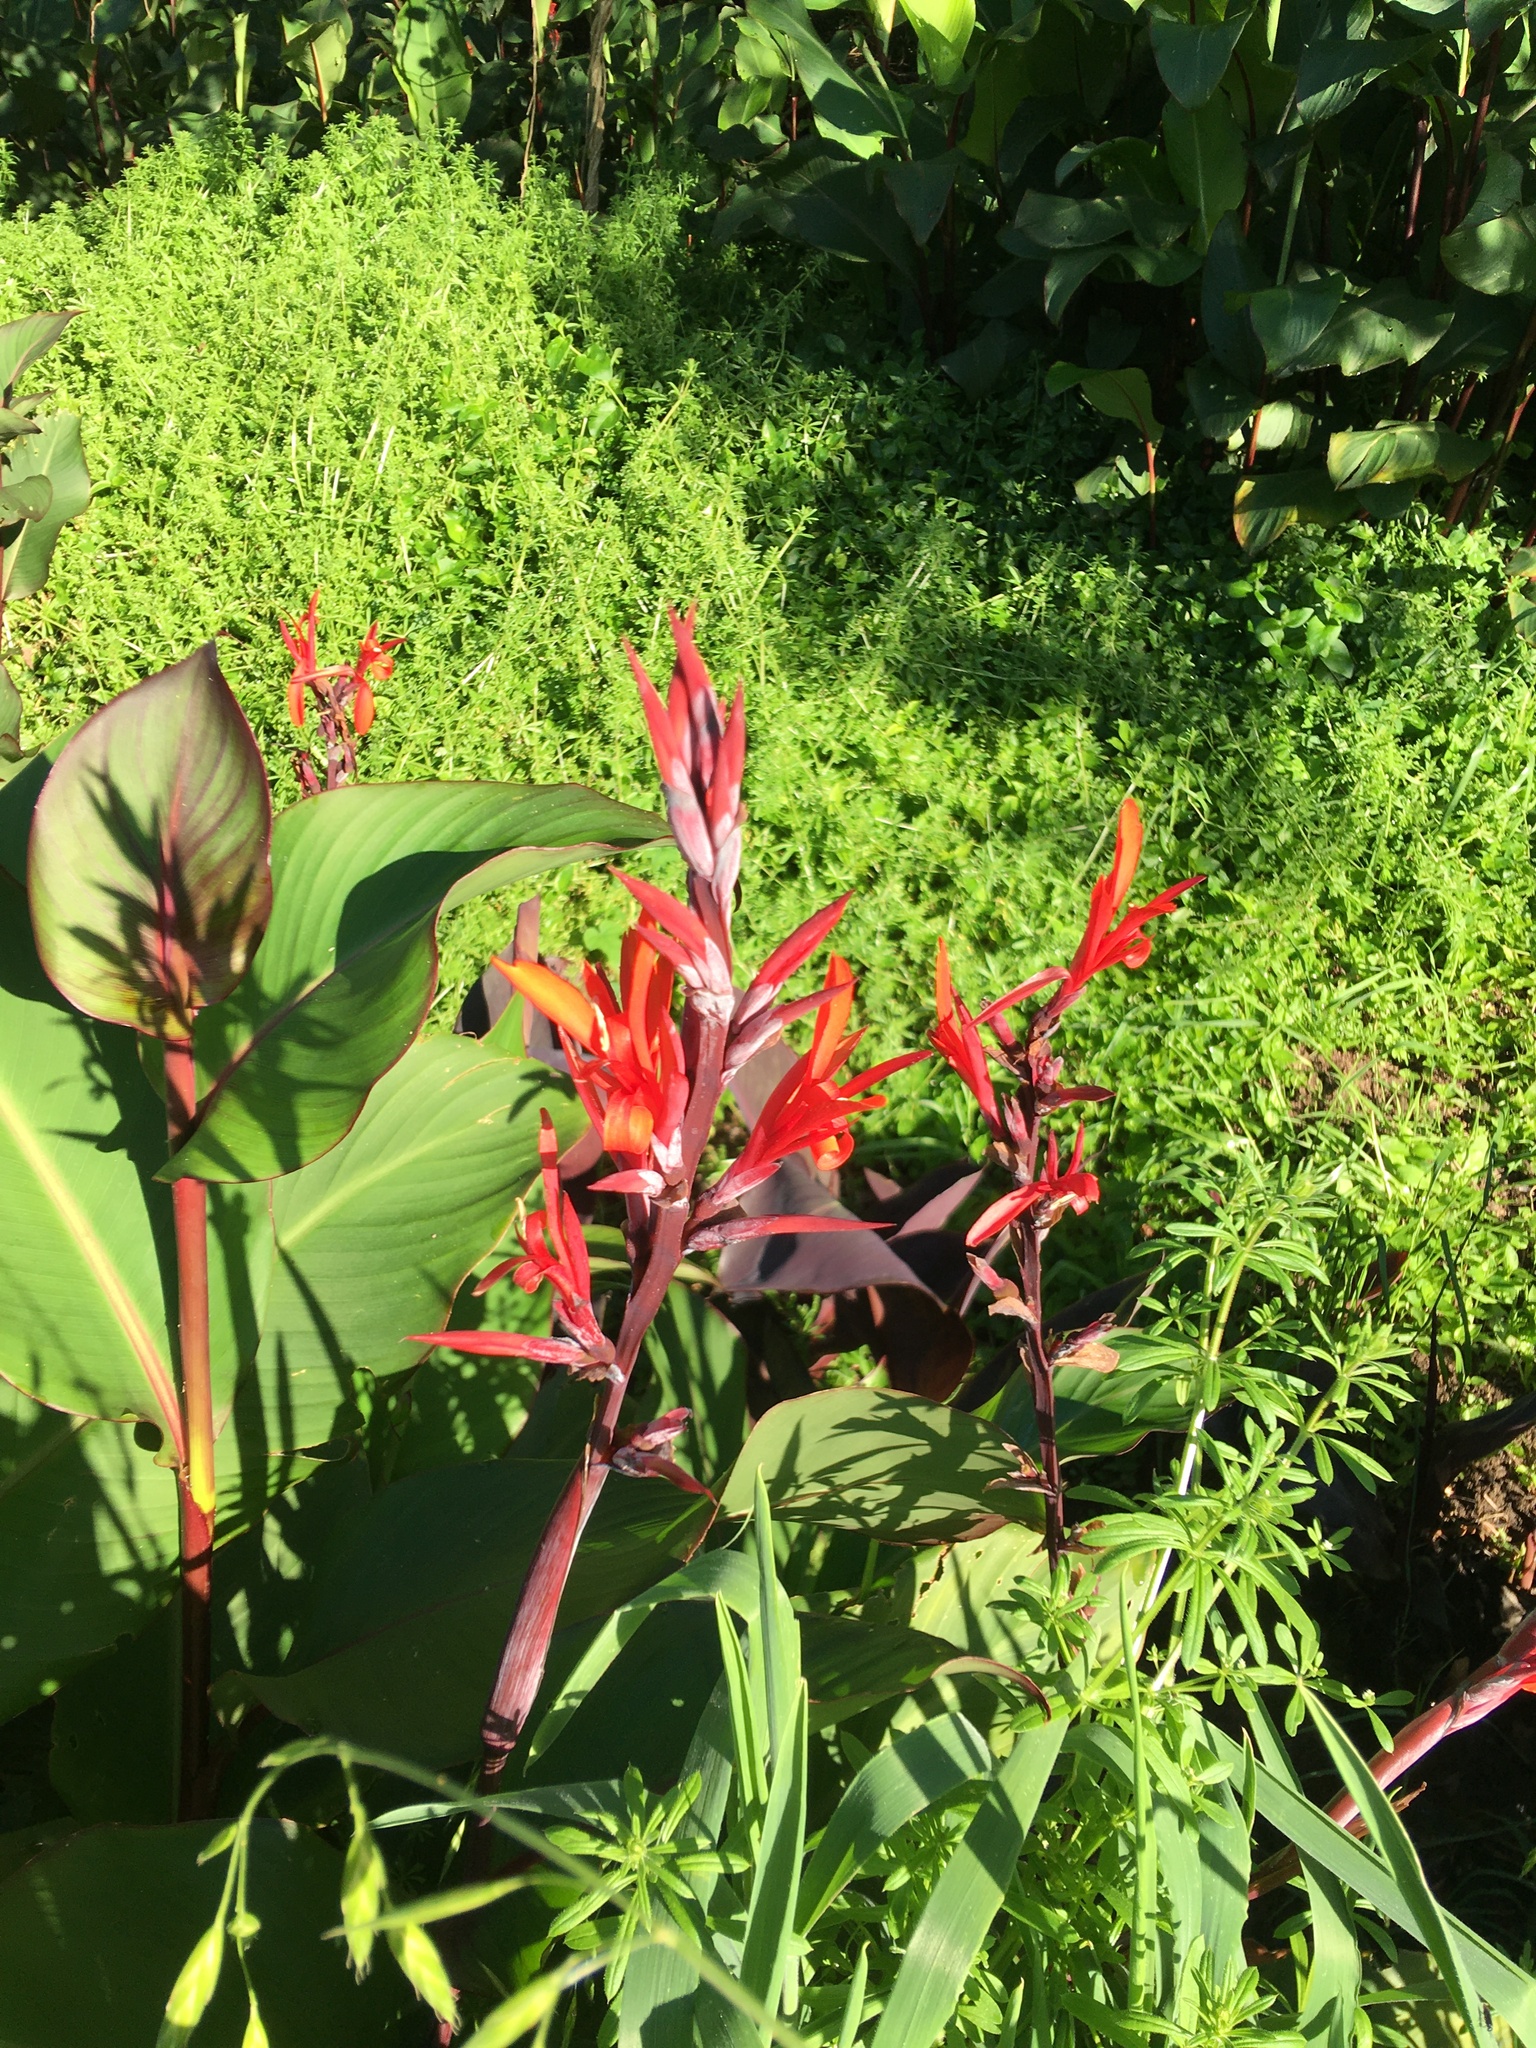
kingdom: Plantae
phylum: Tracheophyta
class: Liliopsida
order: Zingiberales
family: Cannaceae
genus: Canna
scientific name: Canna indica
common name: Indian shot
